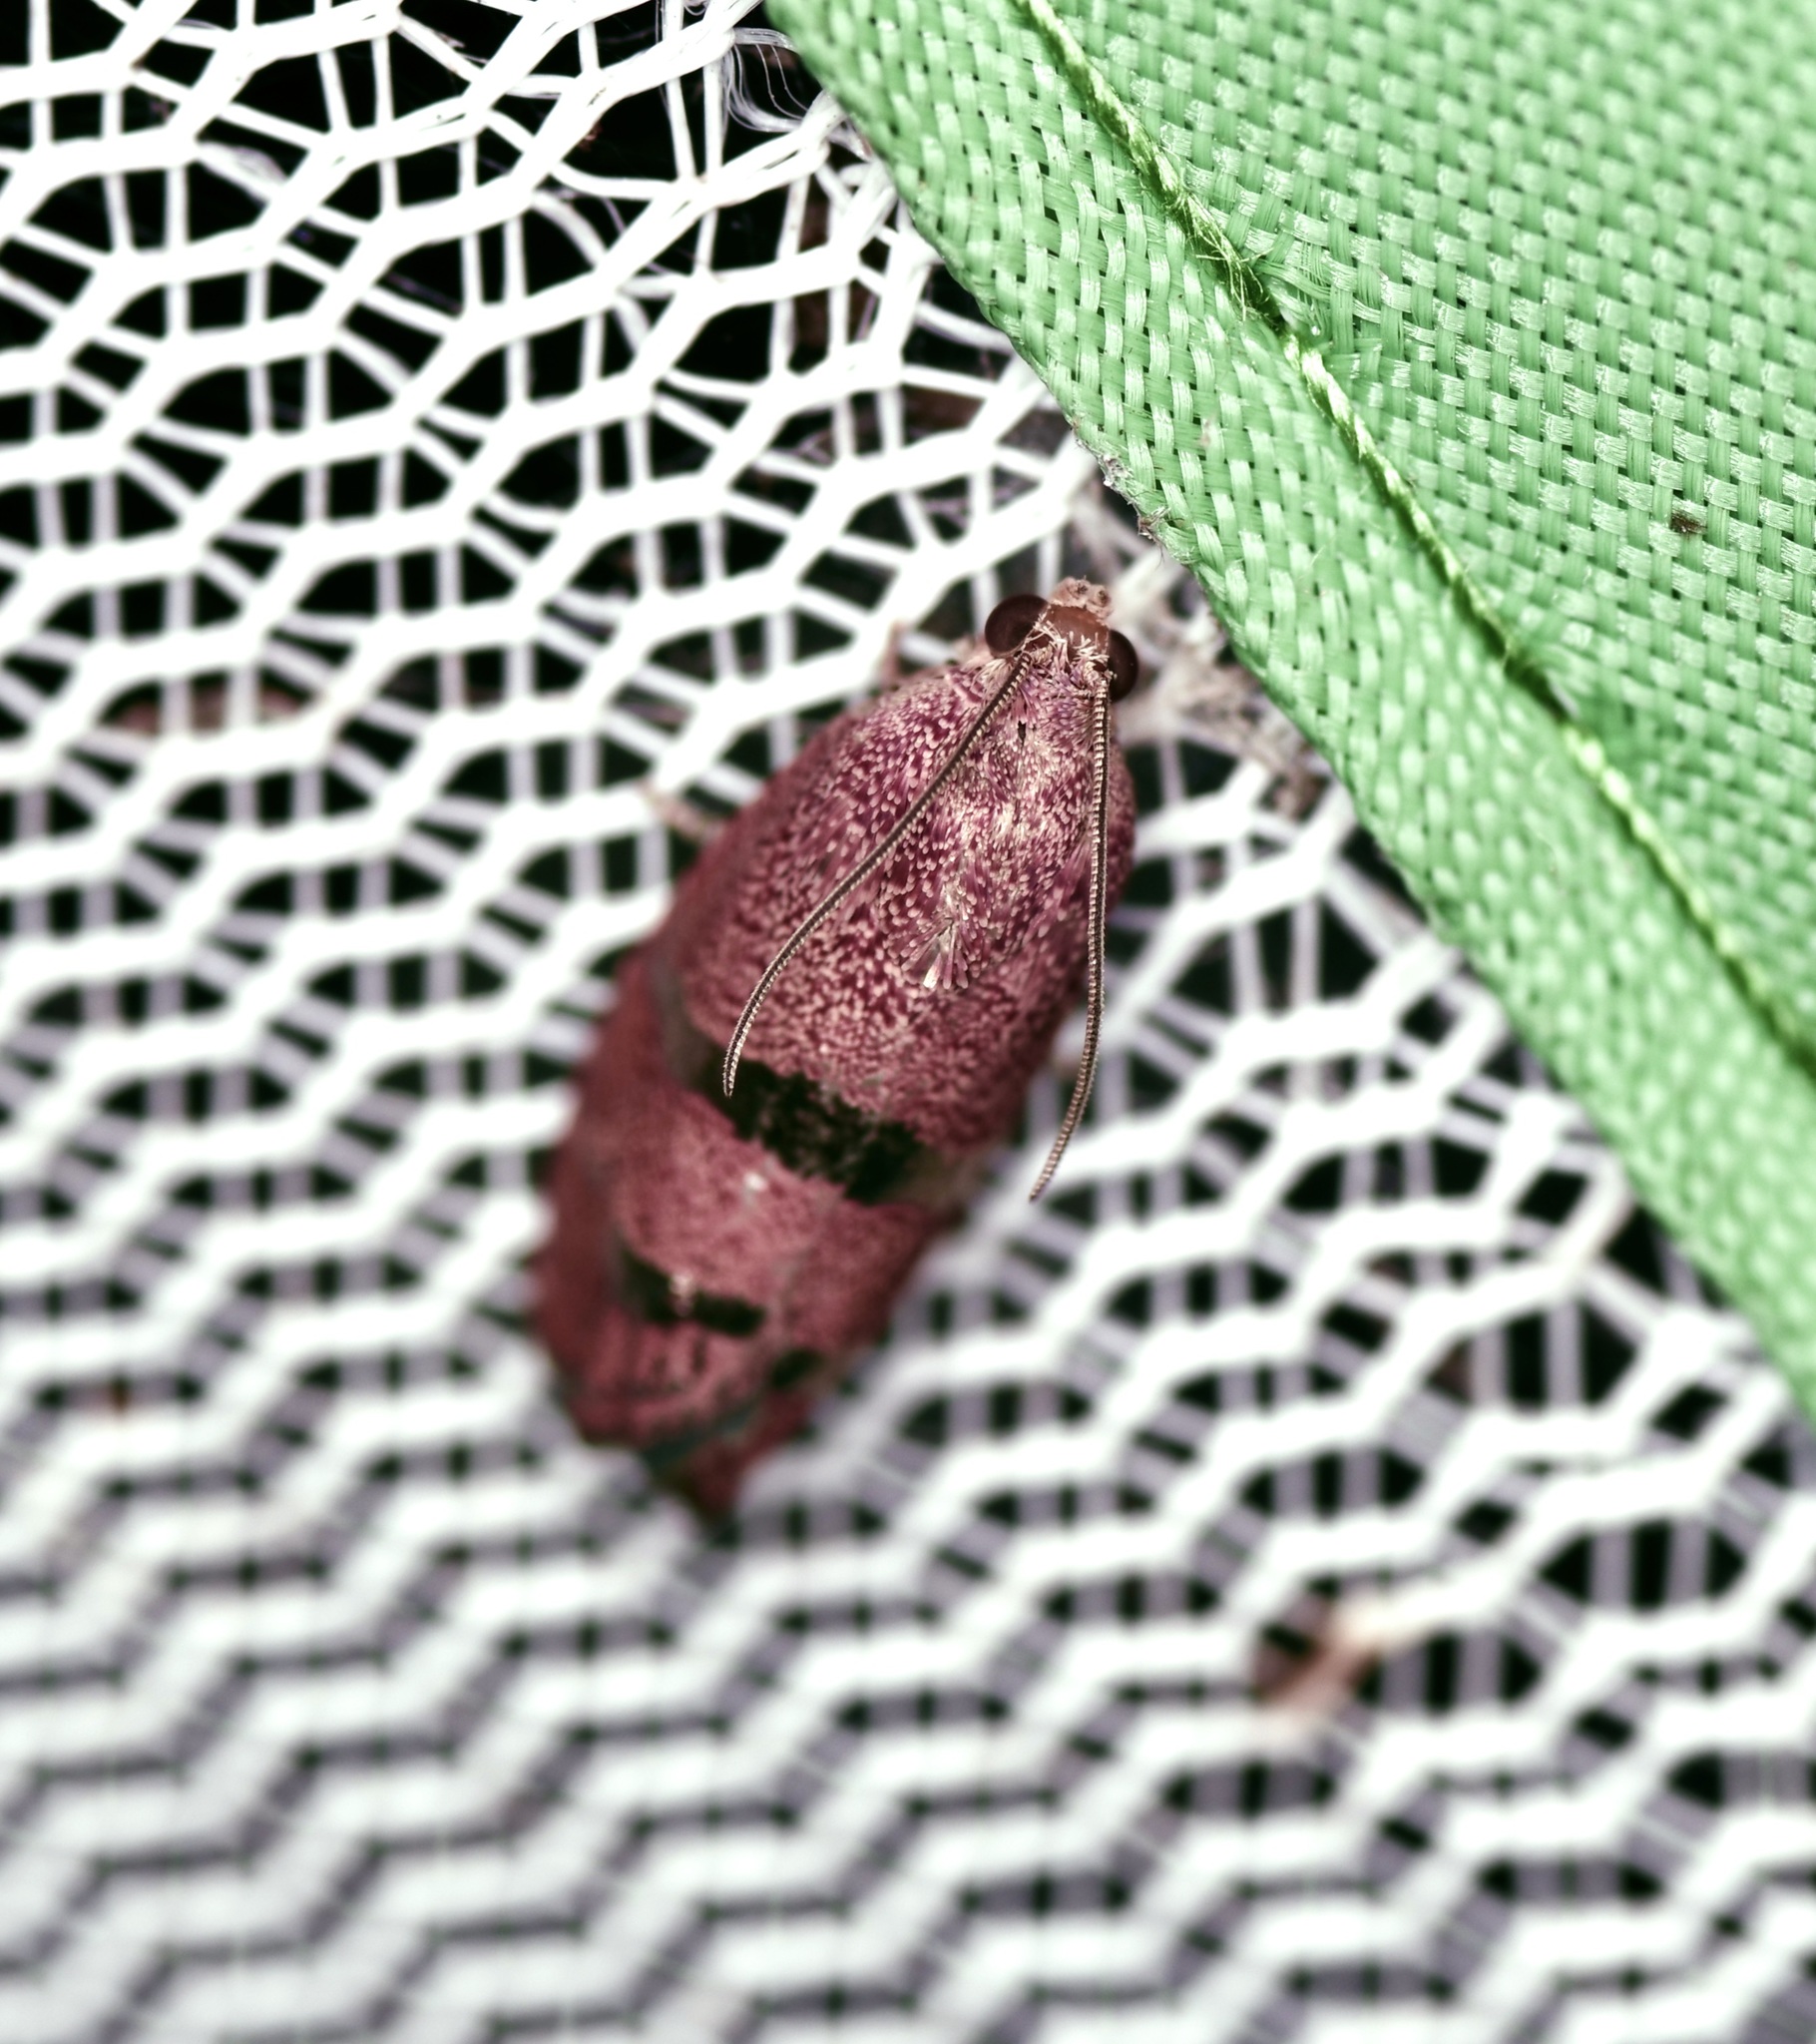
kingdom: Animalia
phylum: Arthropoda
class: Insecta
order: Lepidoptera
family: Tortricidae
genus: Cydia
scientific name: Cydia latiferreana
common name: Filbertworm moth
